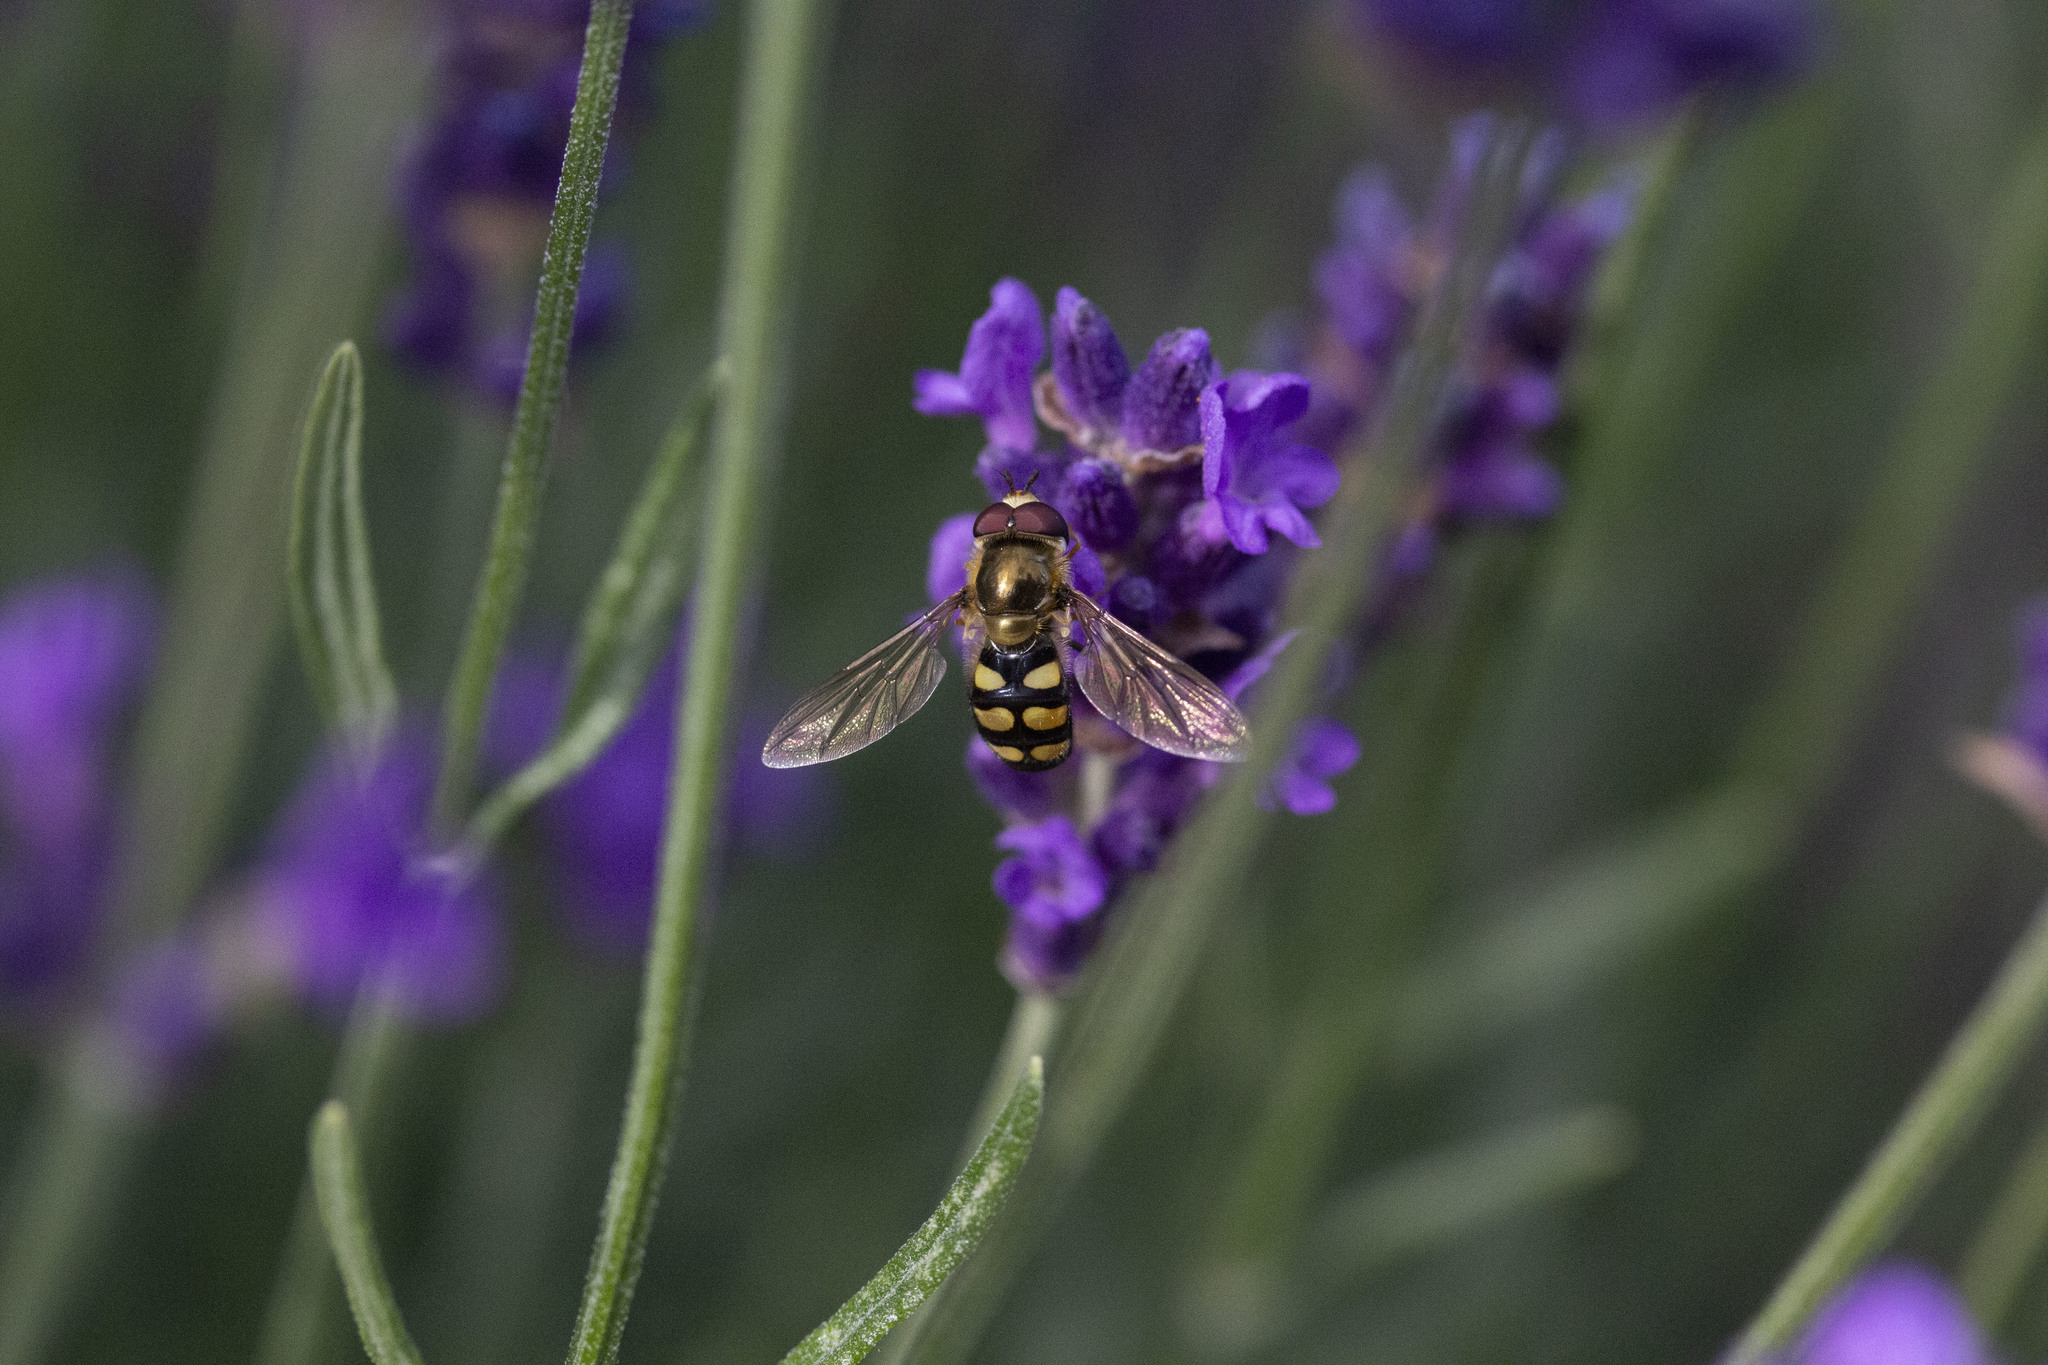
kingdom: Animalia
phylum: Arthropoda
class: Insecta
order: Diptera
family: Syrphidae
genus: Eupeodes
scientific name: Eupeodes
